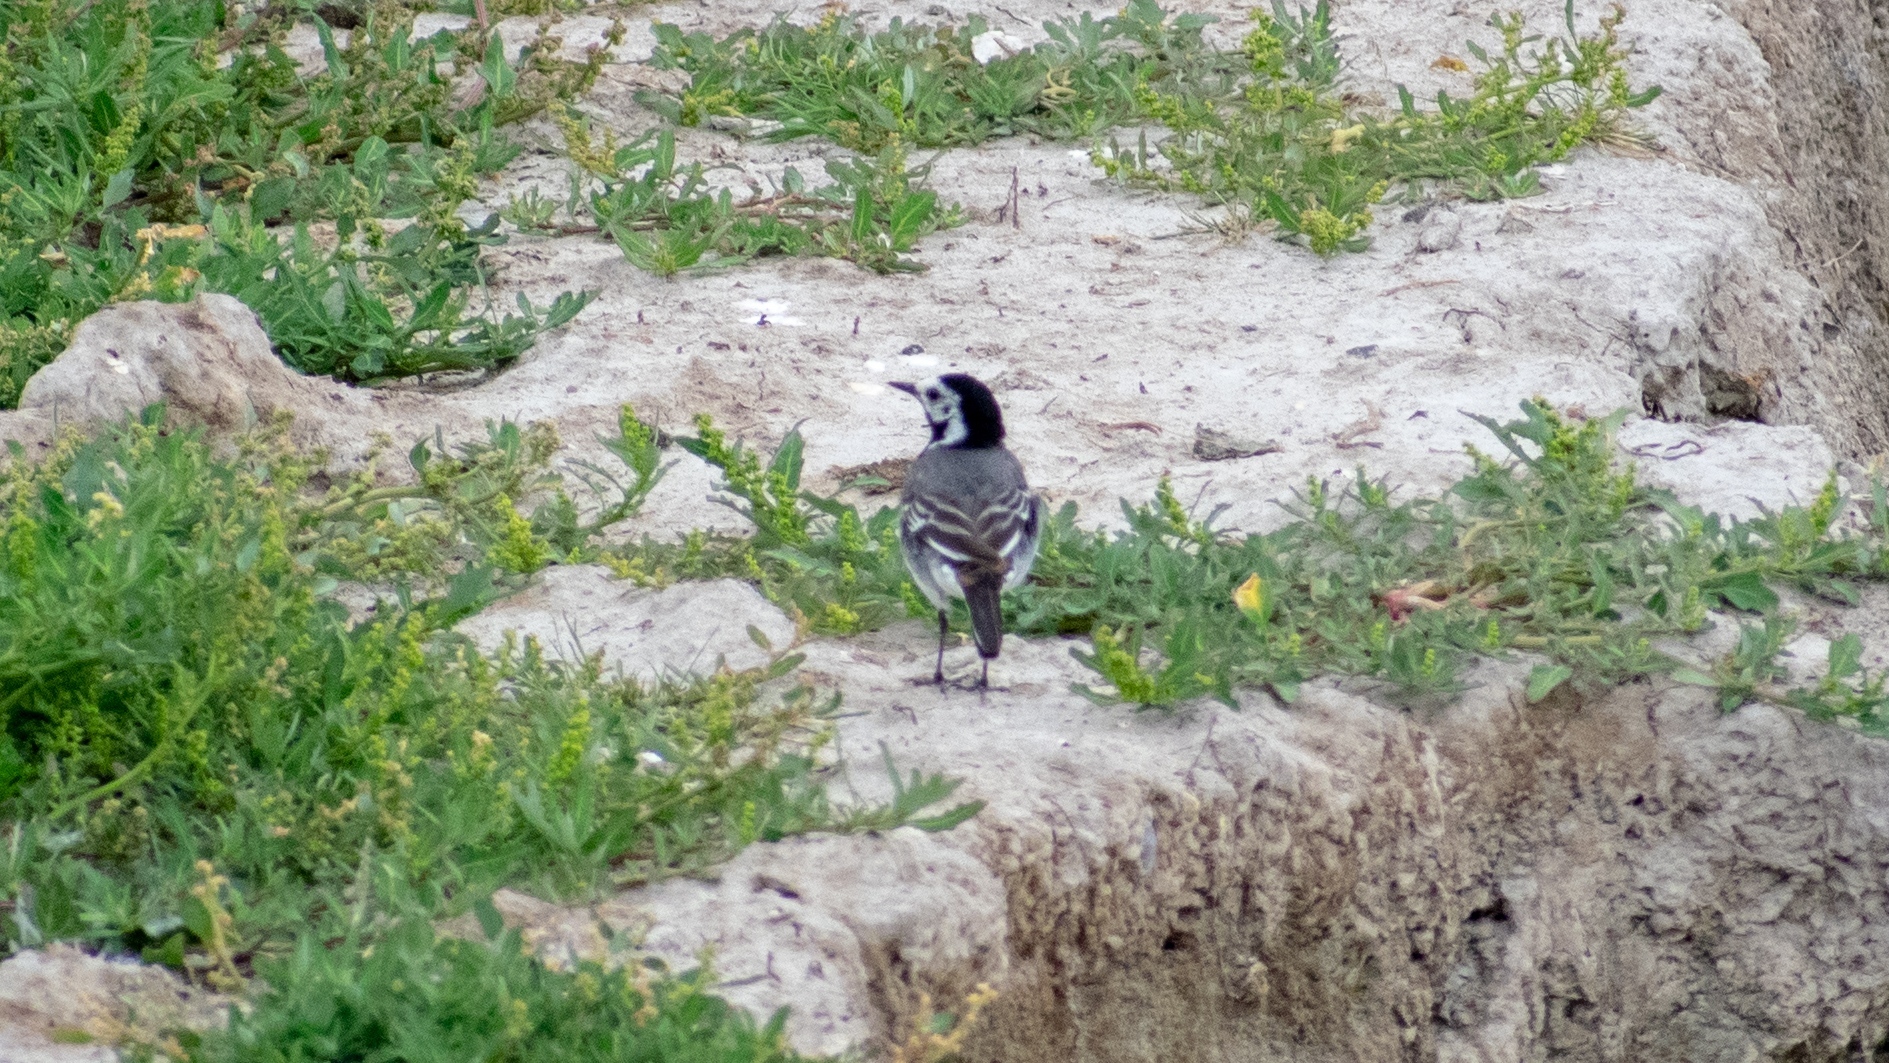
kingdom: Animalia
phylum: Chordata
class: Aves
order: Passeriformes
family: Motacillidae
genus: Motacilla
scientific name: Motacilla alba
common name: White wagtail
